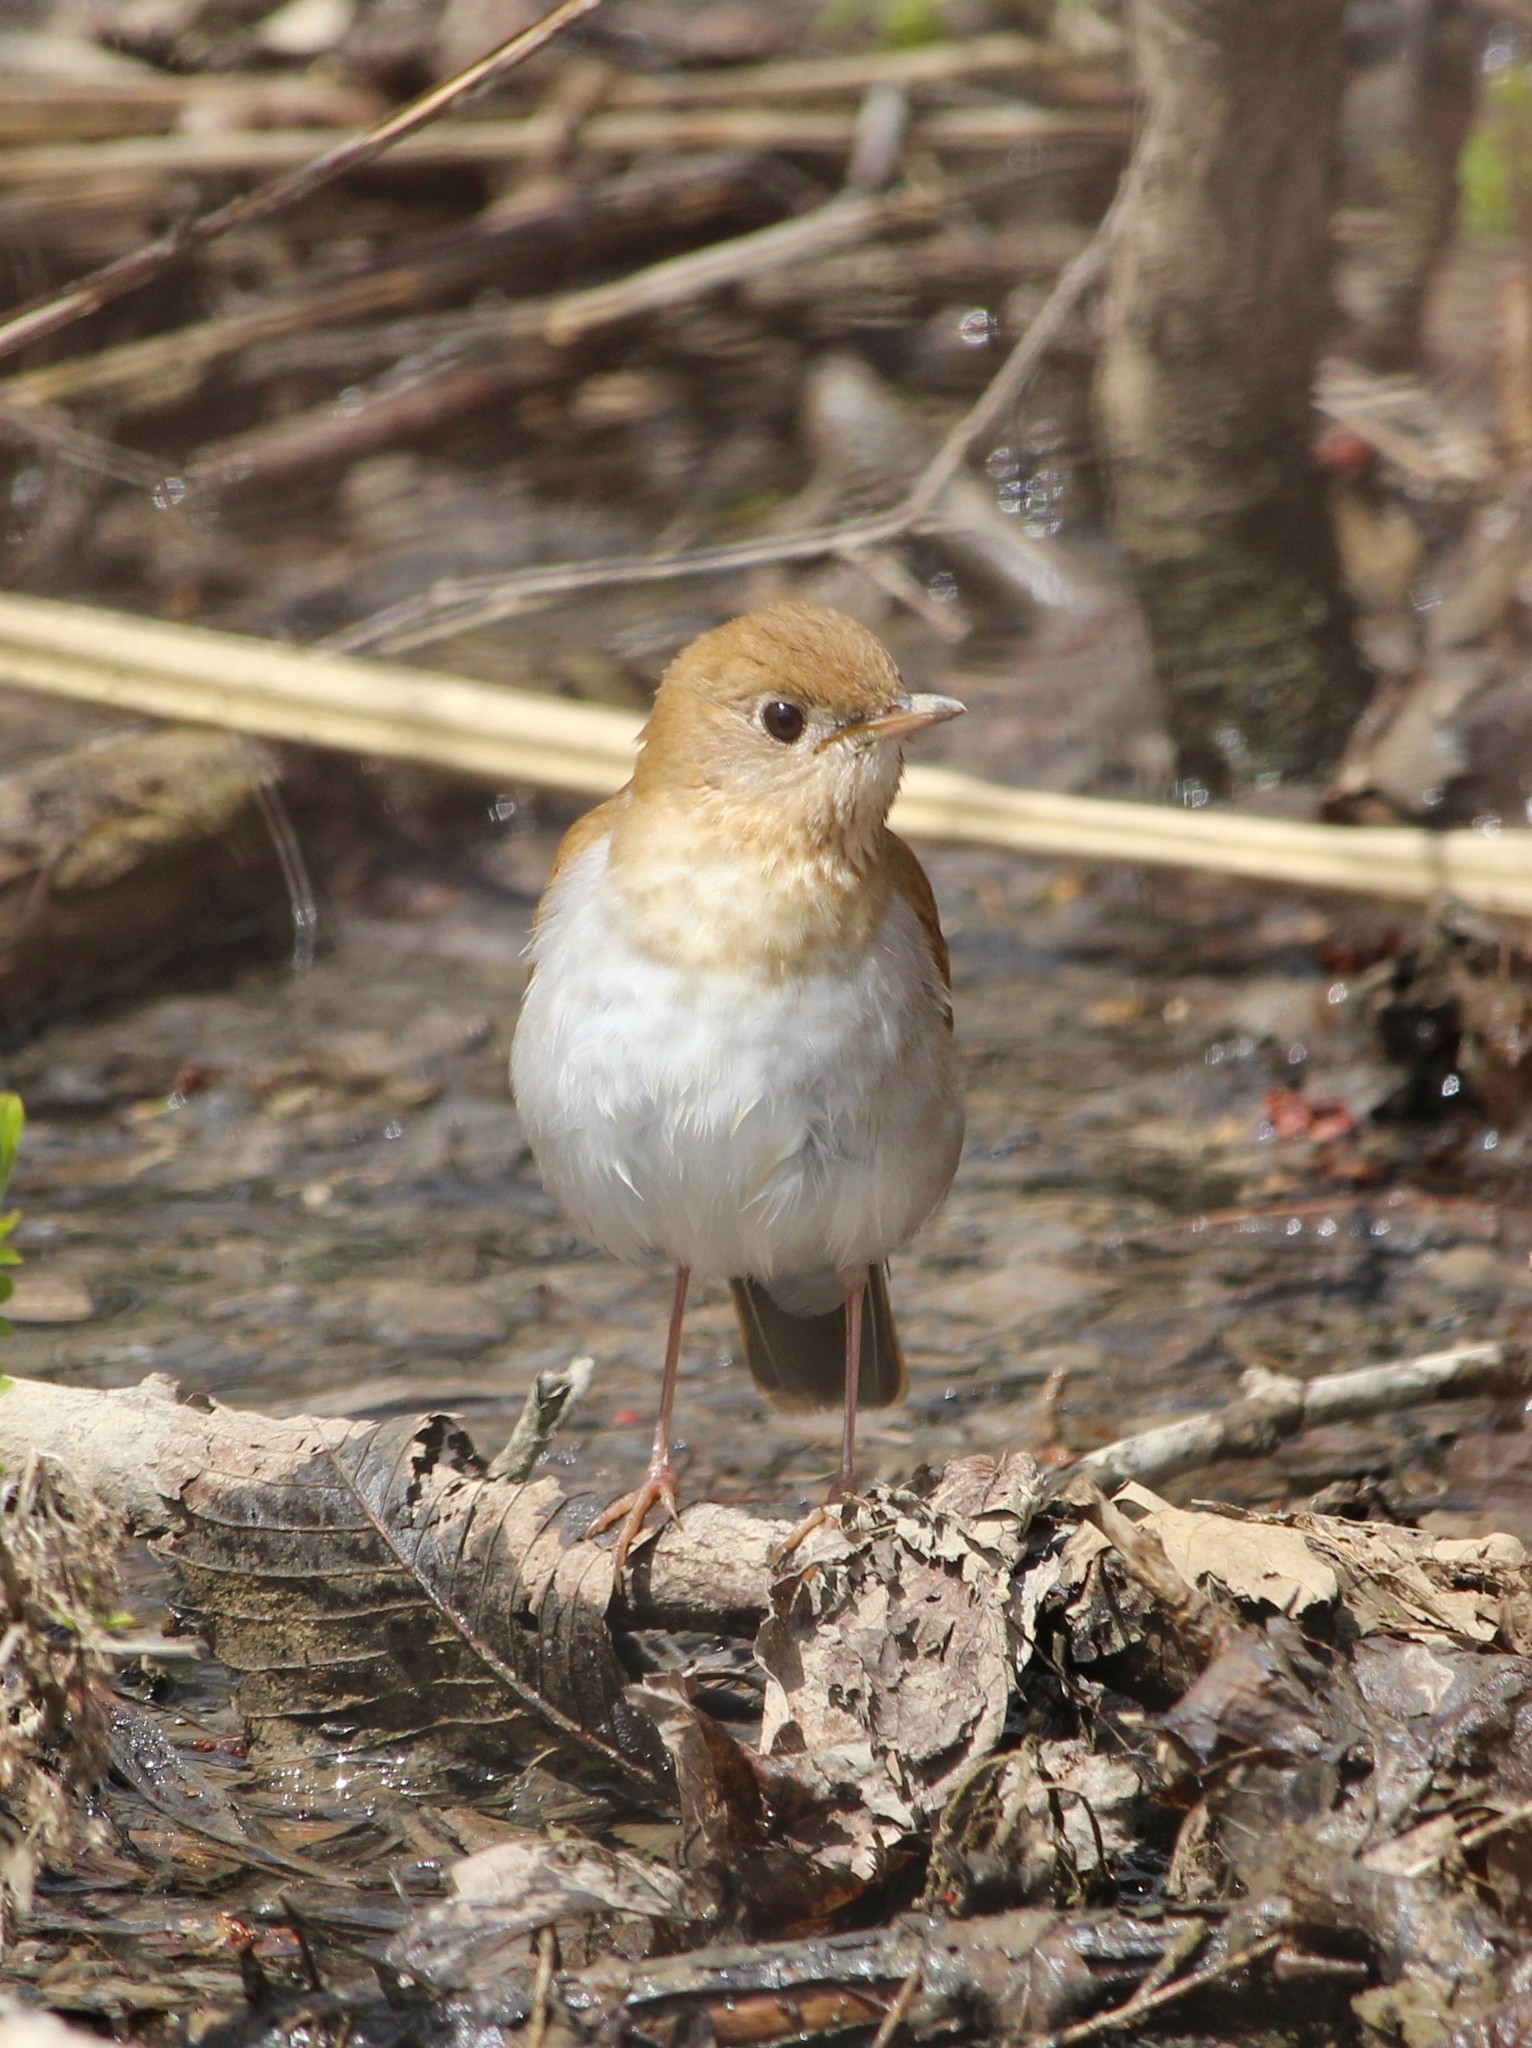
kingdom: Animalia
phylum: Chordata
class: Aves
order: Passeriformes
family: Turdidae
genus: Catharus
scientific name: Catharus fuscescens
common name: Veery
